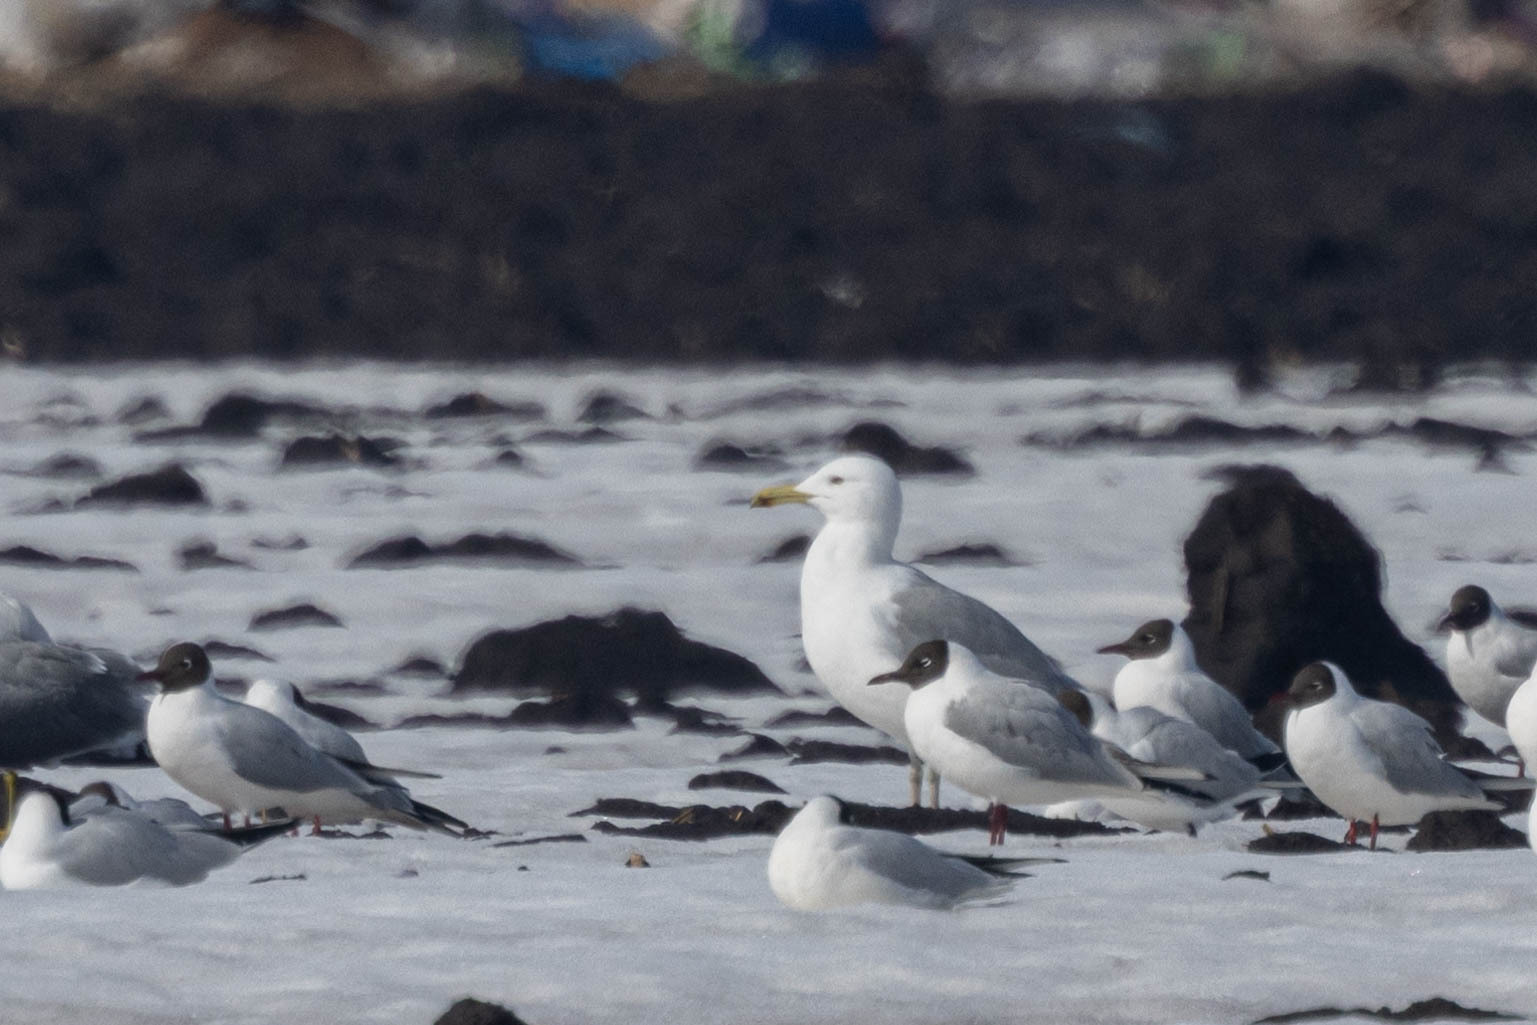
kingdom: Animalia
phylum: Chordata
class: Aves
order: Charadriiformes
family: Laridae
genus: Larus
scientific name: Larus cachinnans
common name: Caspian gull
